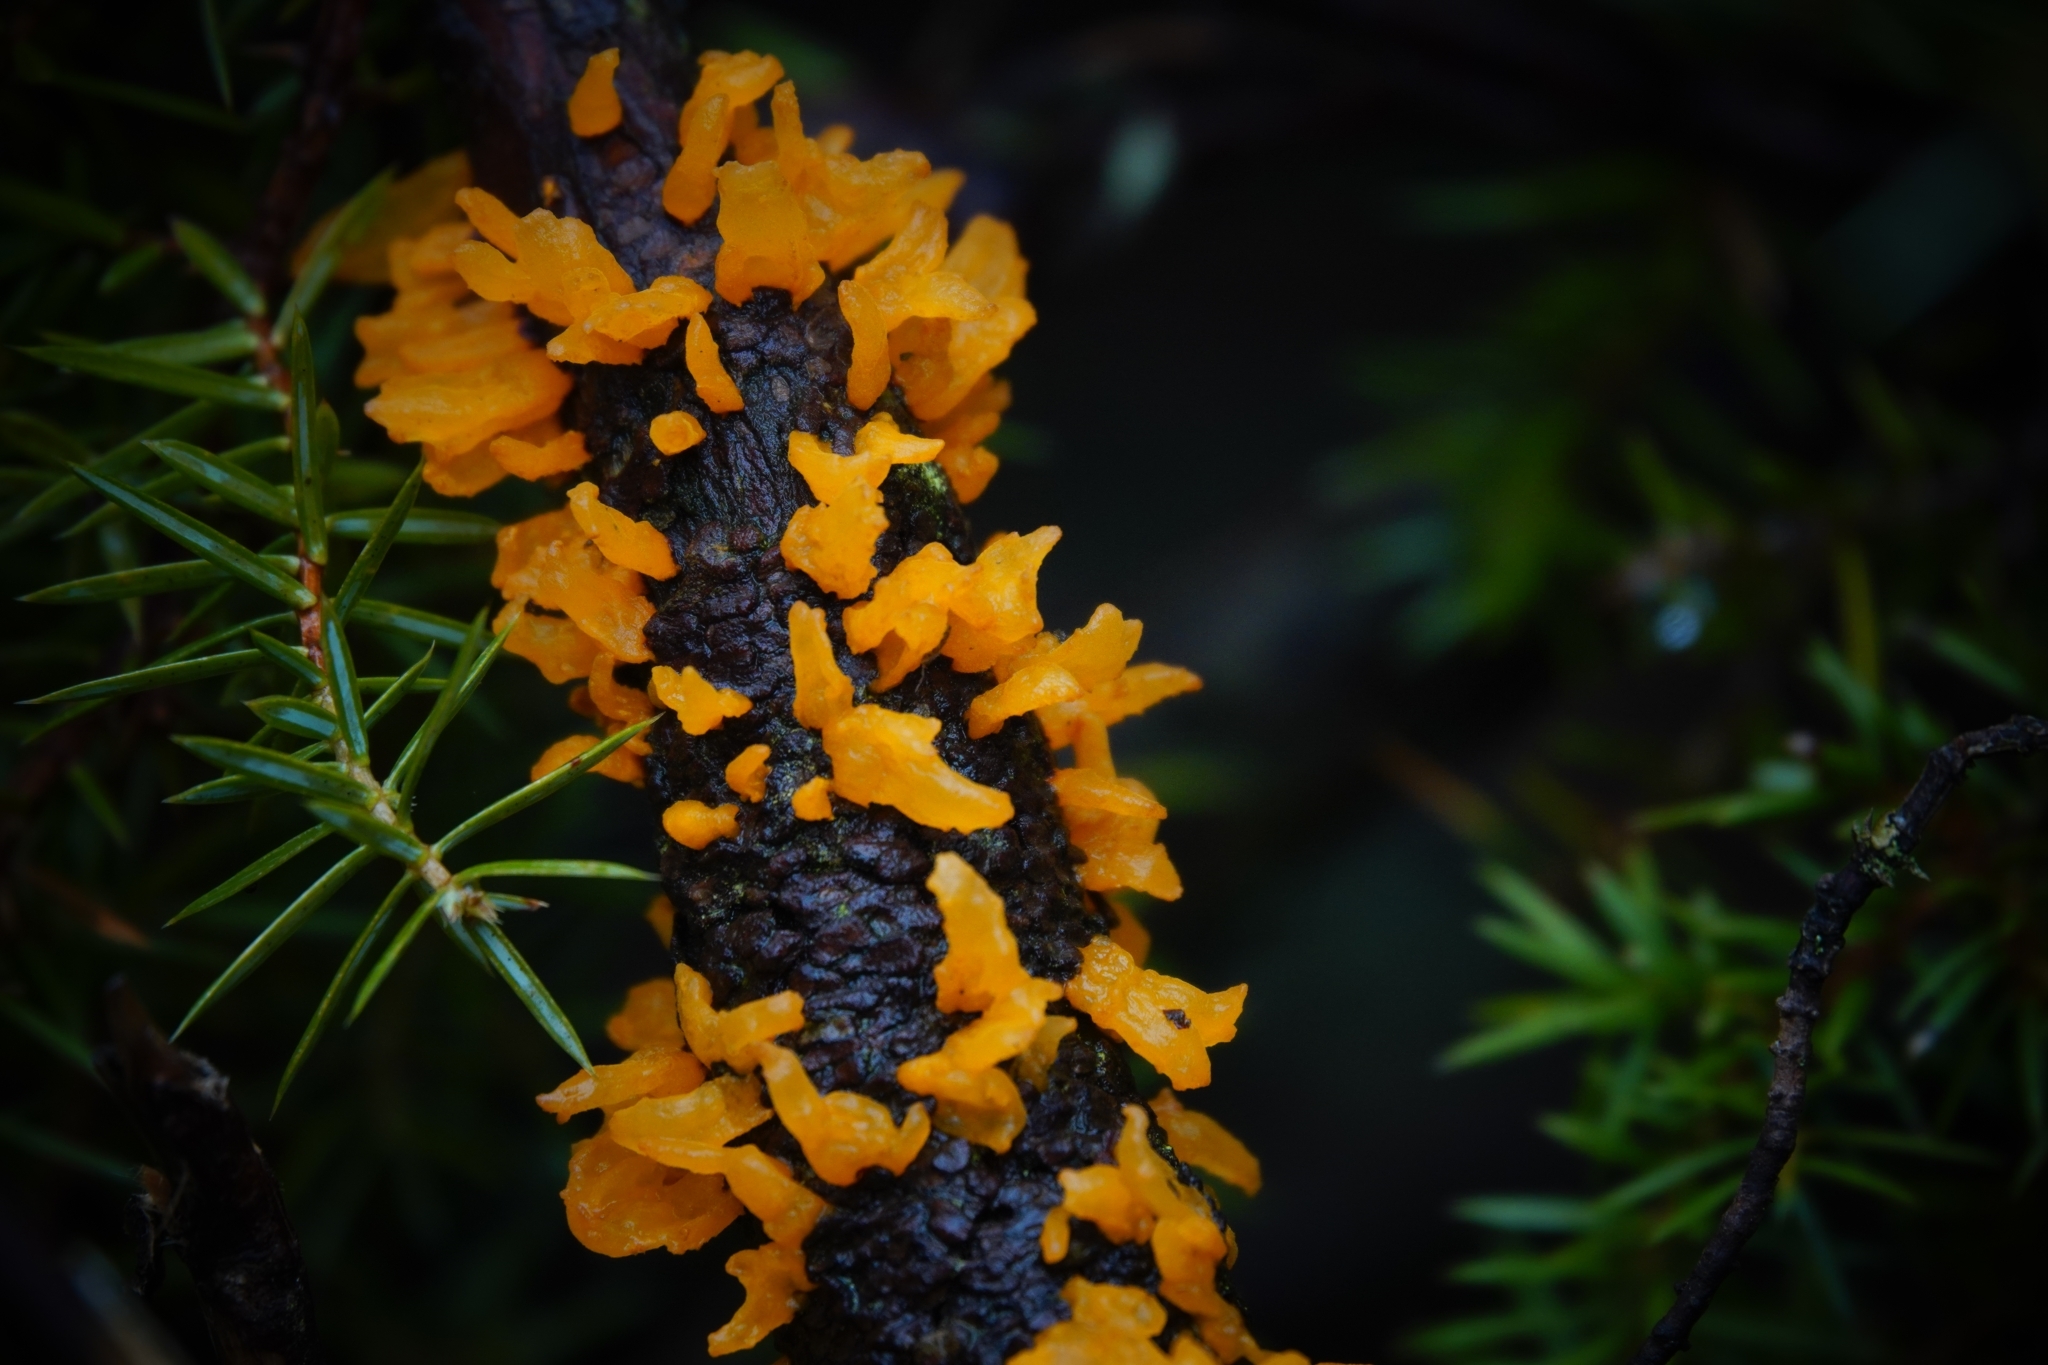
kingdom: Fungi
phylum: Basidiomycota
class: Pucciniomycetes
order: Pucciniales
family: Gymnosporangiaceae
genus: Gymnosporangium
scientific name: Gymnosporangium clavariiforme
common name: Tongues of fire
